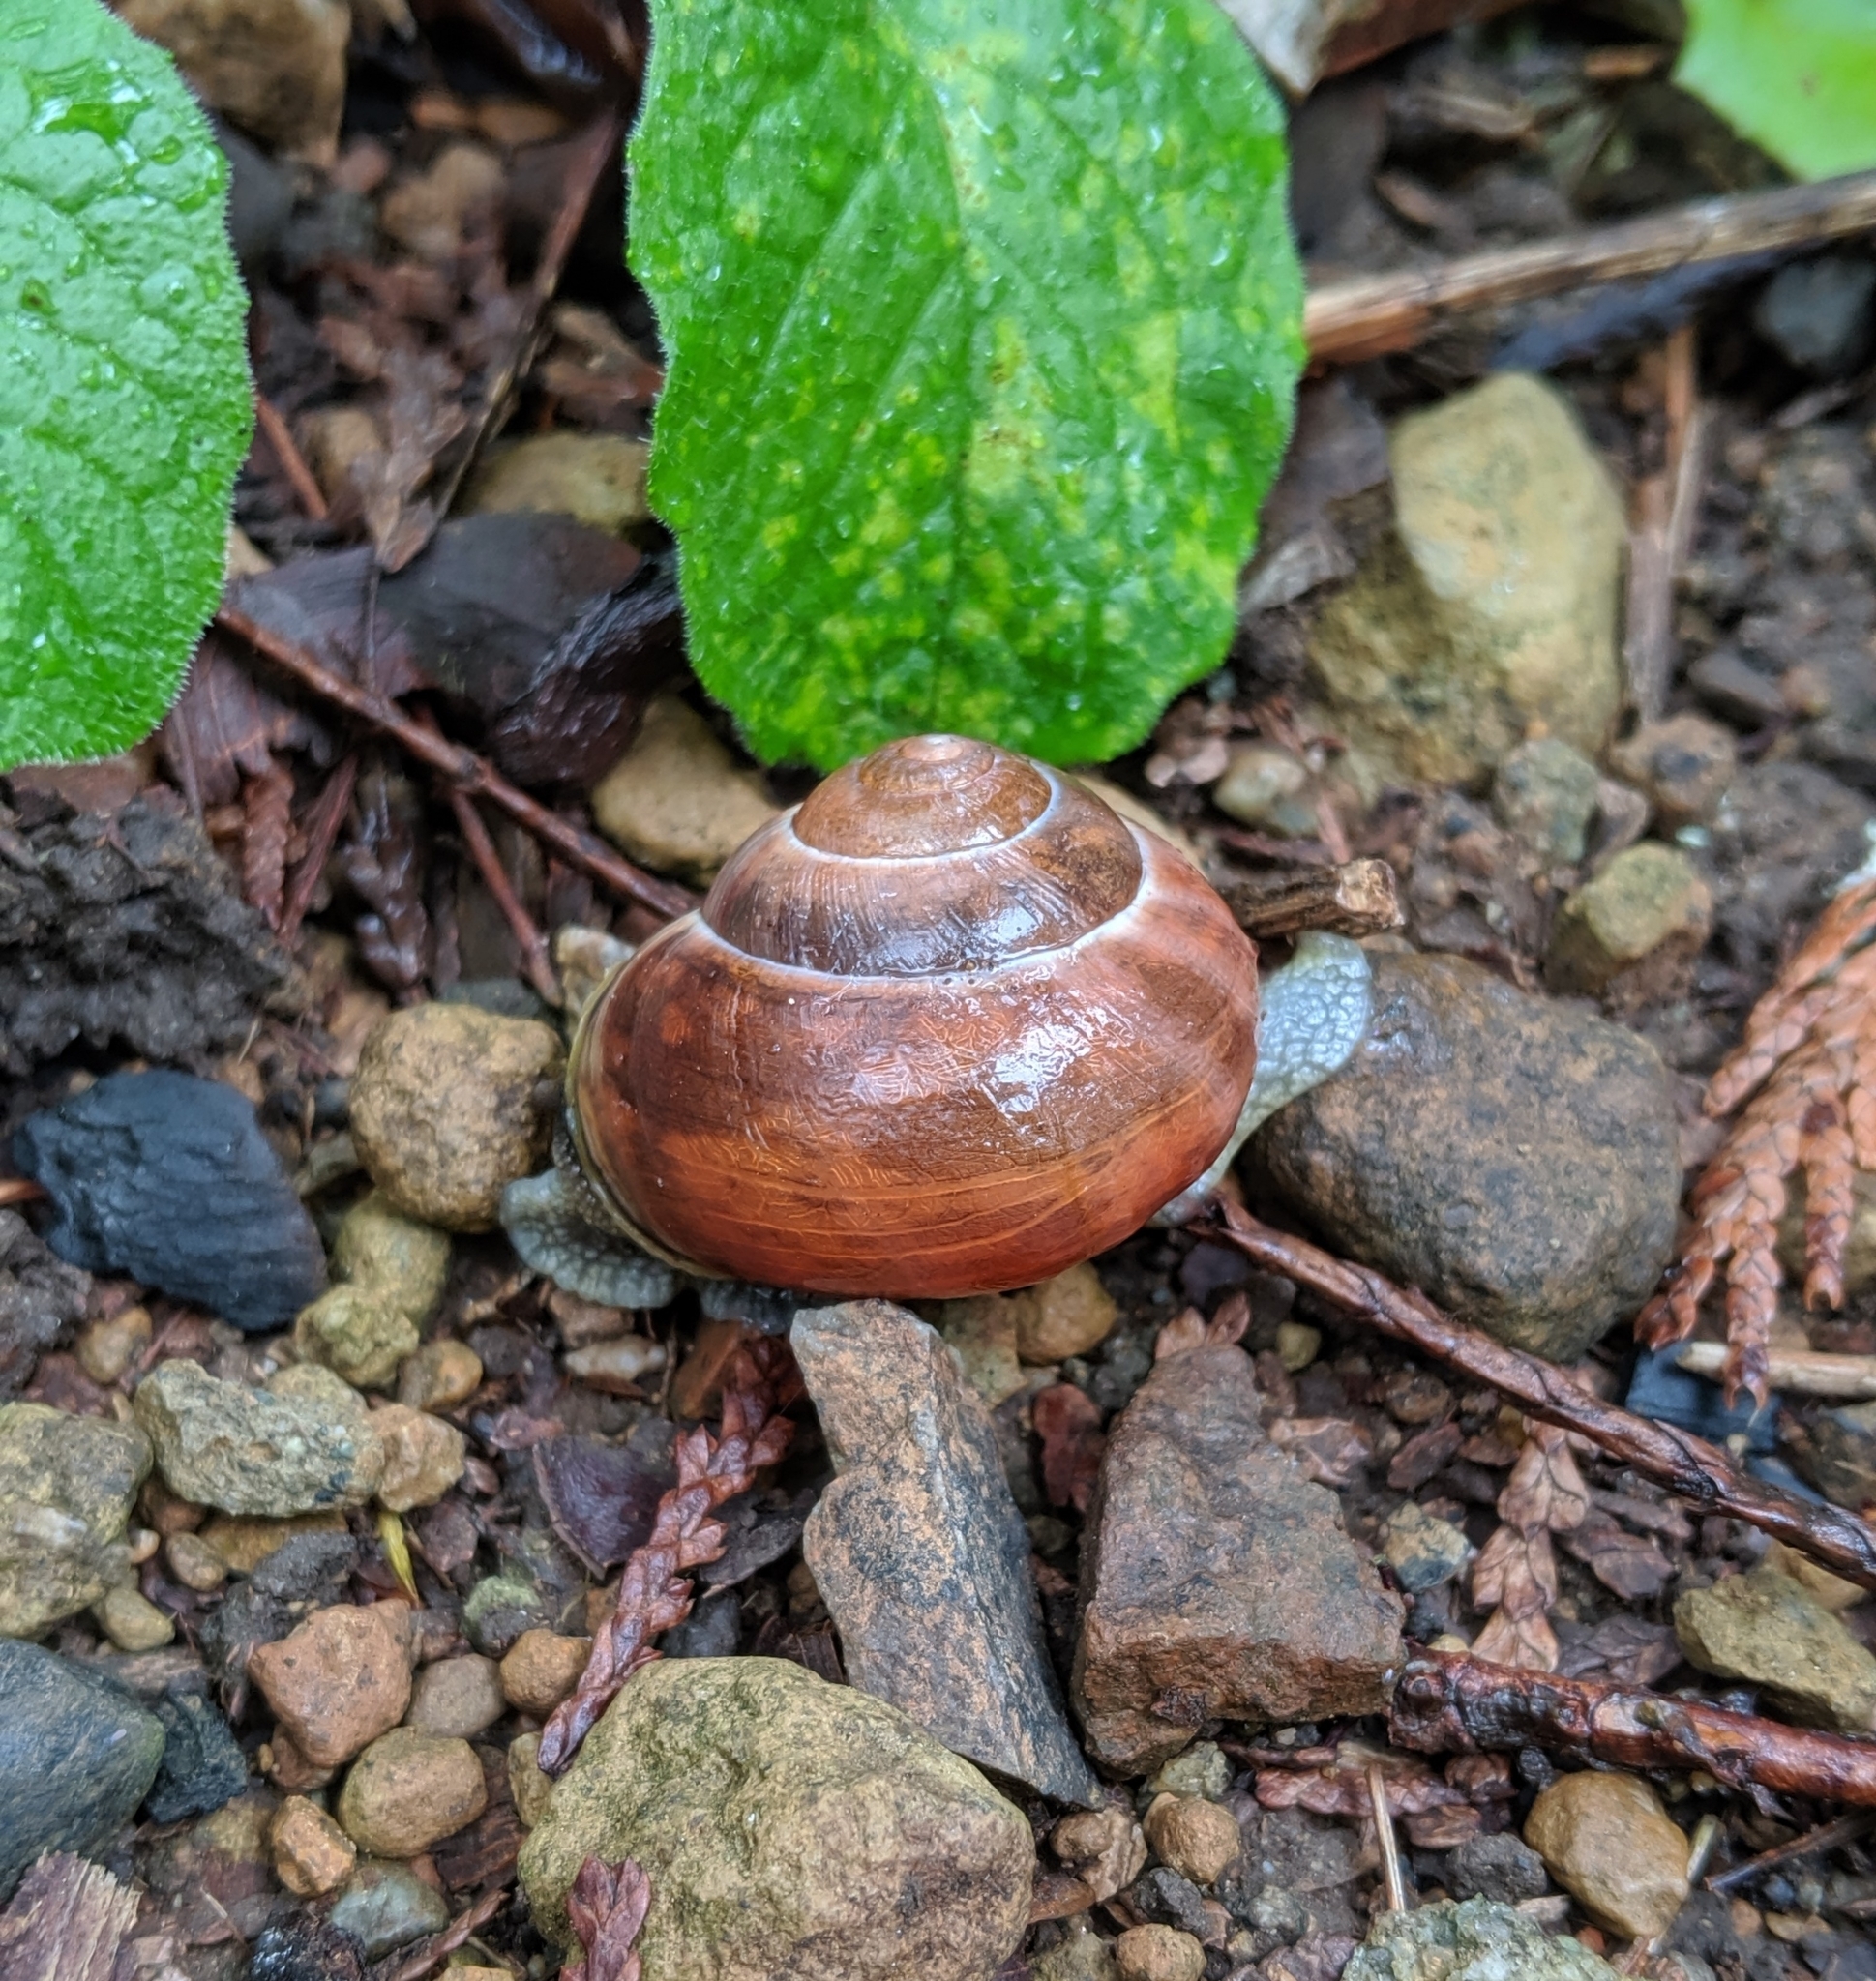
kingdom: Animalia
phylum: Mollusca
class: Gastropoda
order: Stylommatophora
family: Helicidae
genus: Cepaea
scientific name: Cepaea nemoralis
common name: Grovesnail
